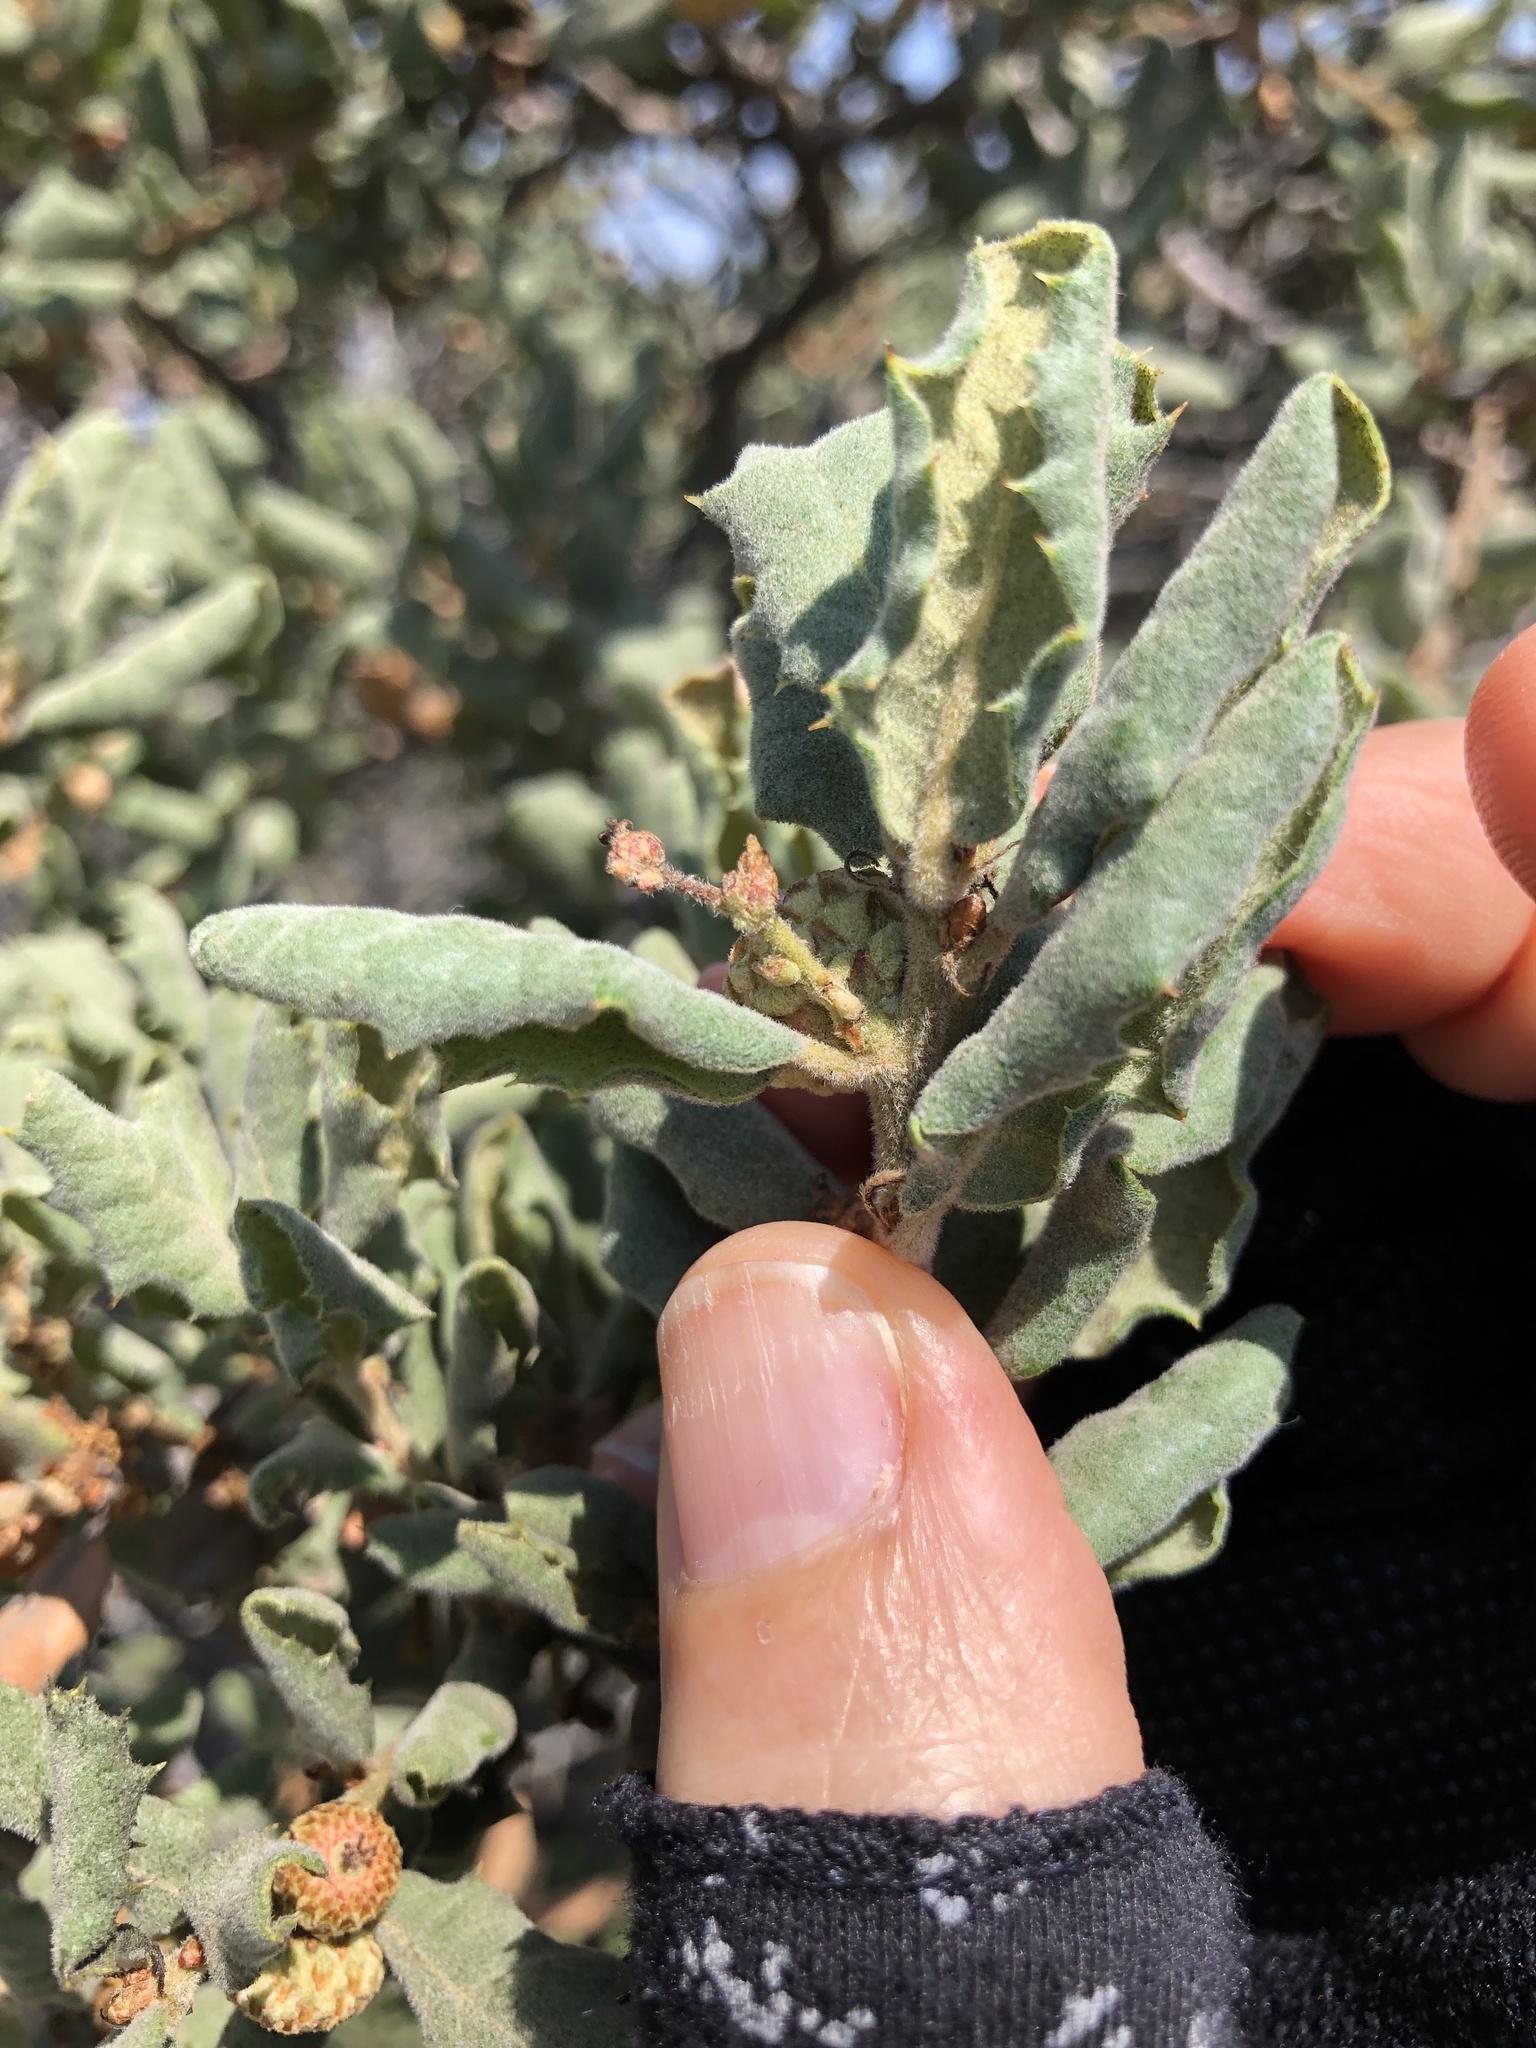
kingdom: Plantae
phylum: Tracheophyta
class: Magnoliopsida
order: Fagales
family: Fagaceae
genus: Quercus
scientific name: Quercus durata
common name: Leather oak
